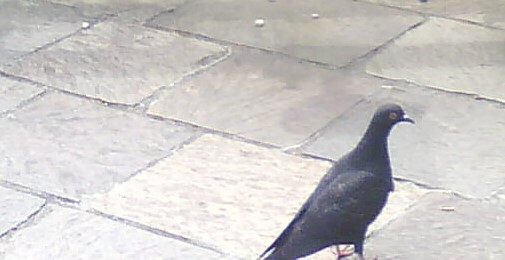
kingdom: Animalia
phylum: Chordata
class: Aves
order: Columbiformes
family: Columbidae
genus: Columba
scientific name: Columba livia
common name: Rock pigeon
